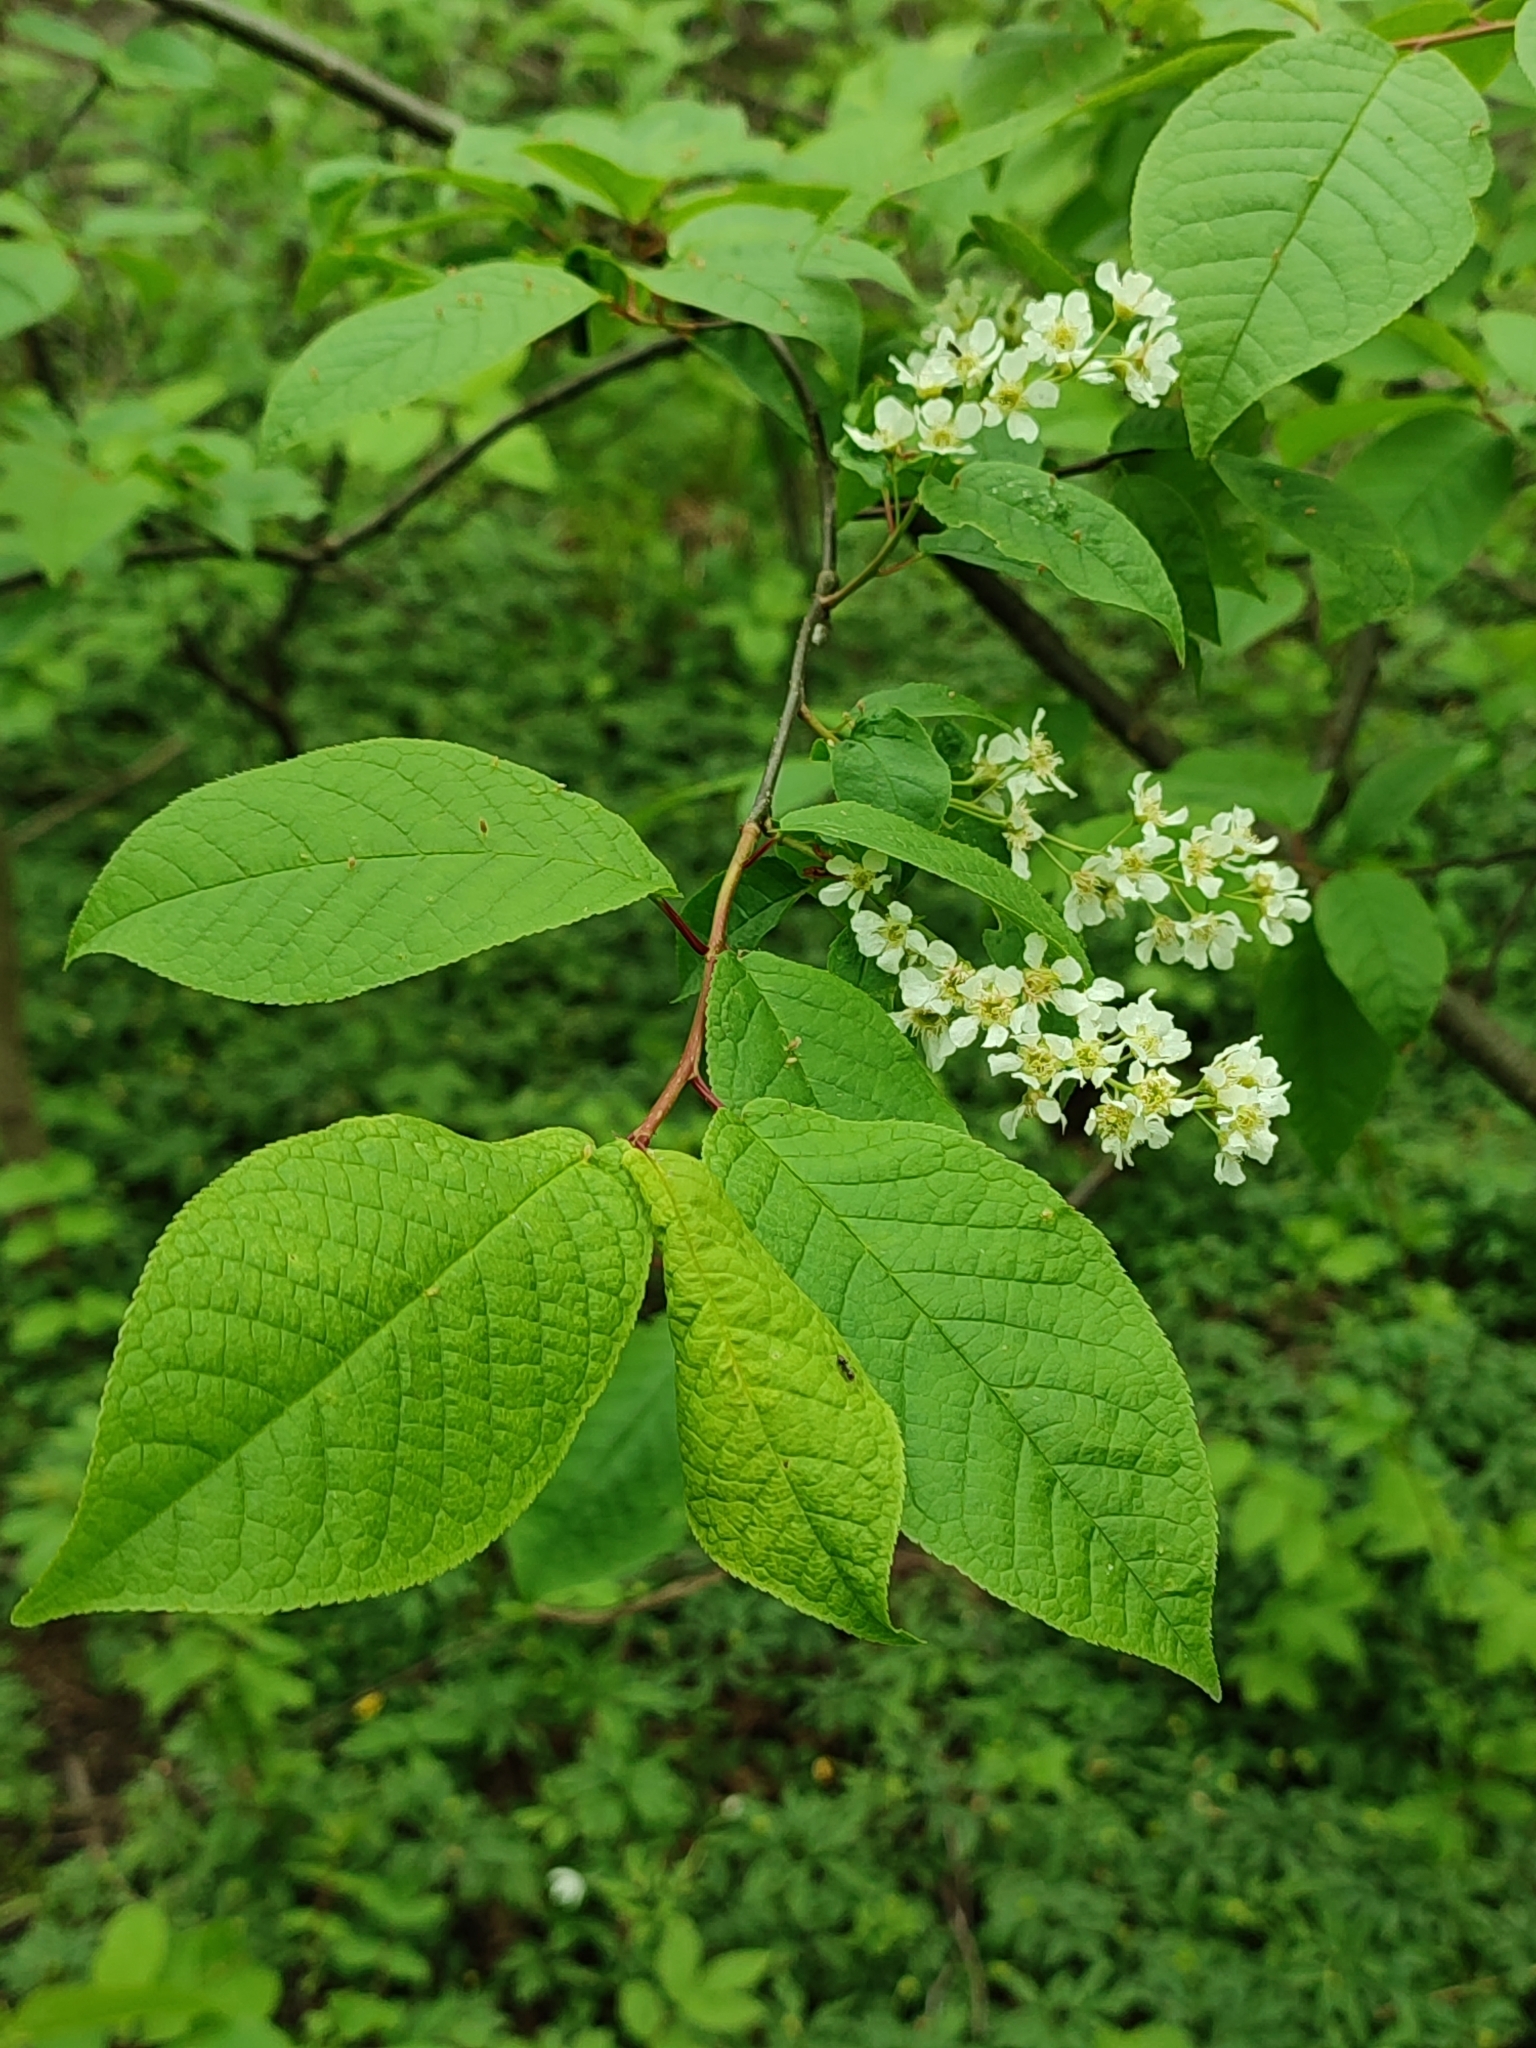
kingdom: Plantae
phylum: Tracheophyta
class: Magnoliopsida
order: Rosales
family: Rosaceae
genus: Prunus
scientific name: Prunus padus
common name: Bird cherry
